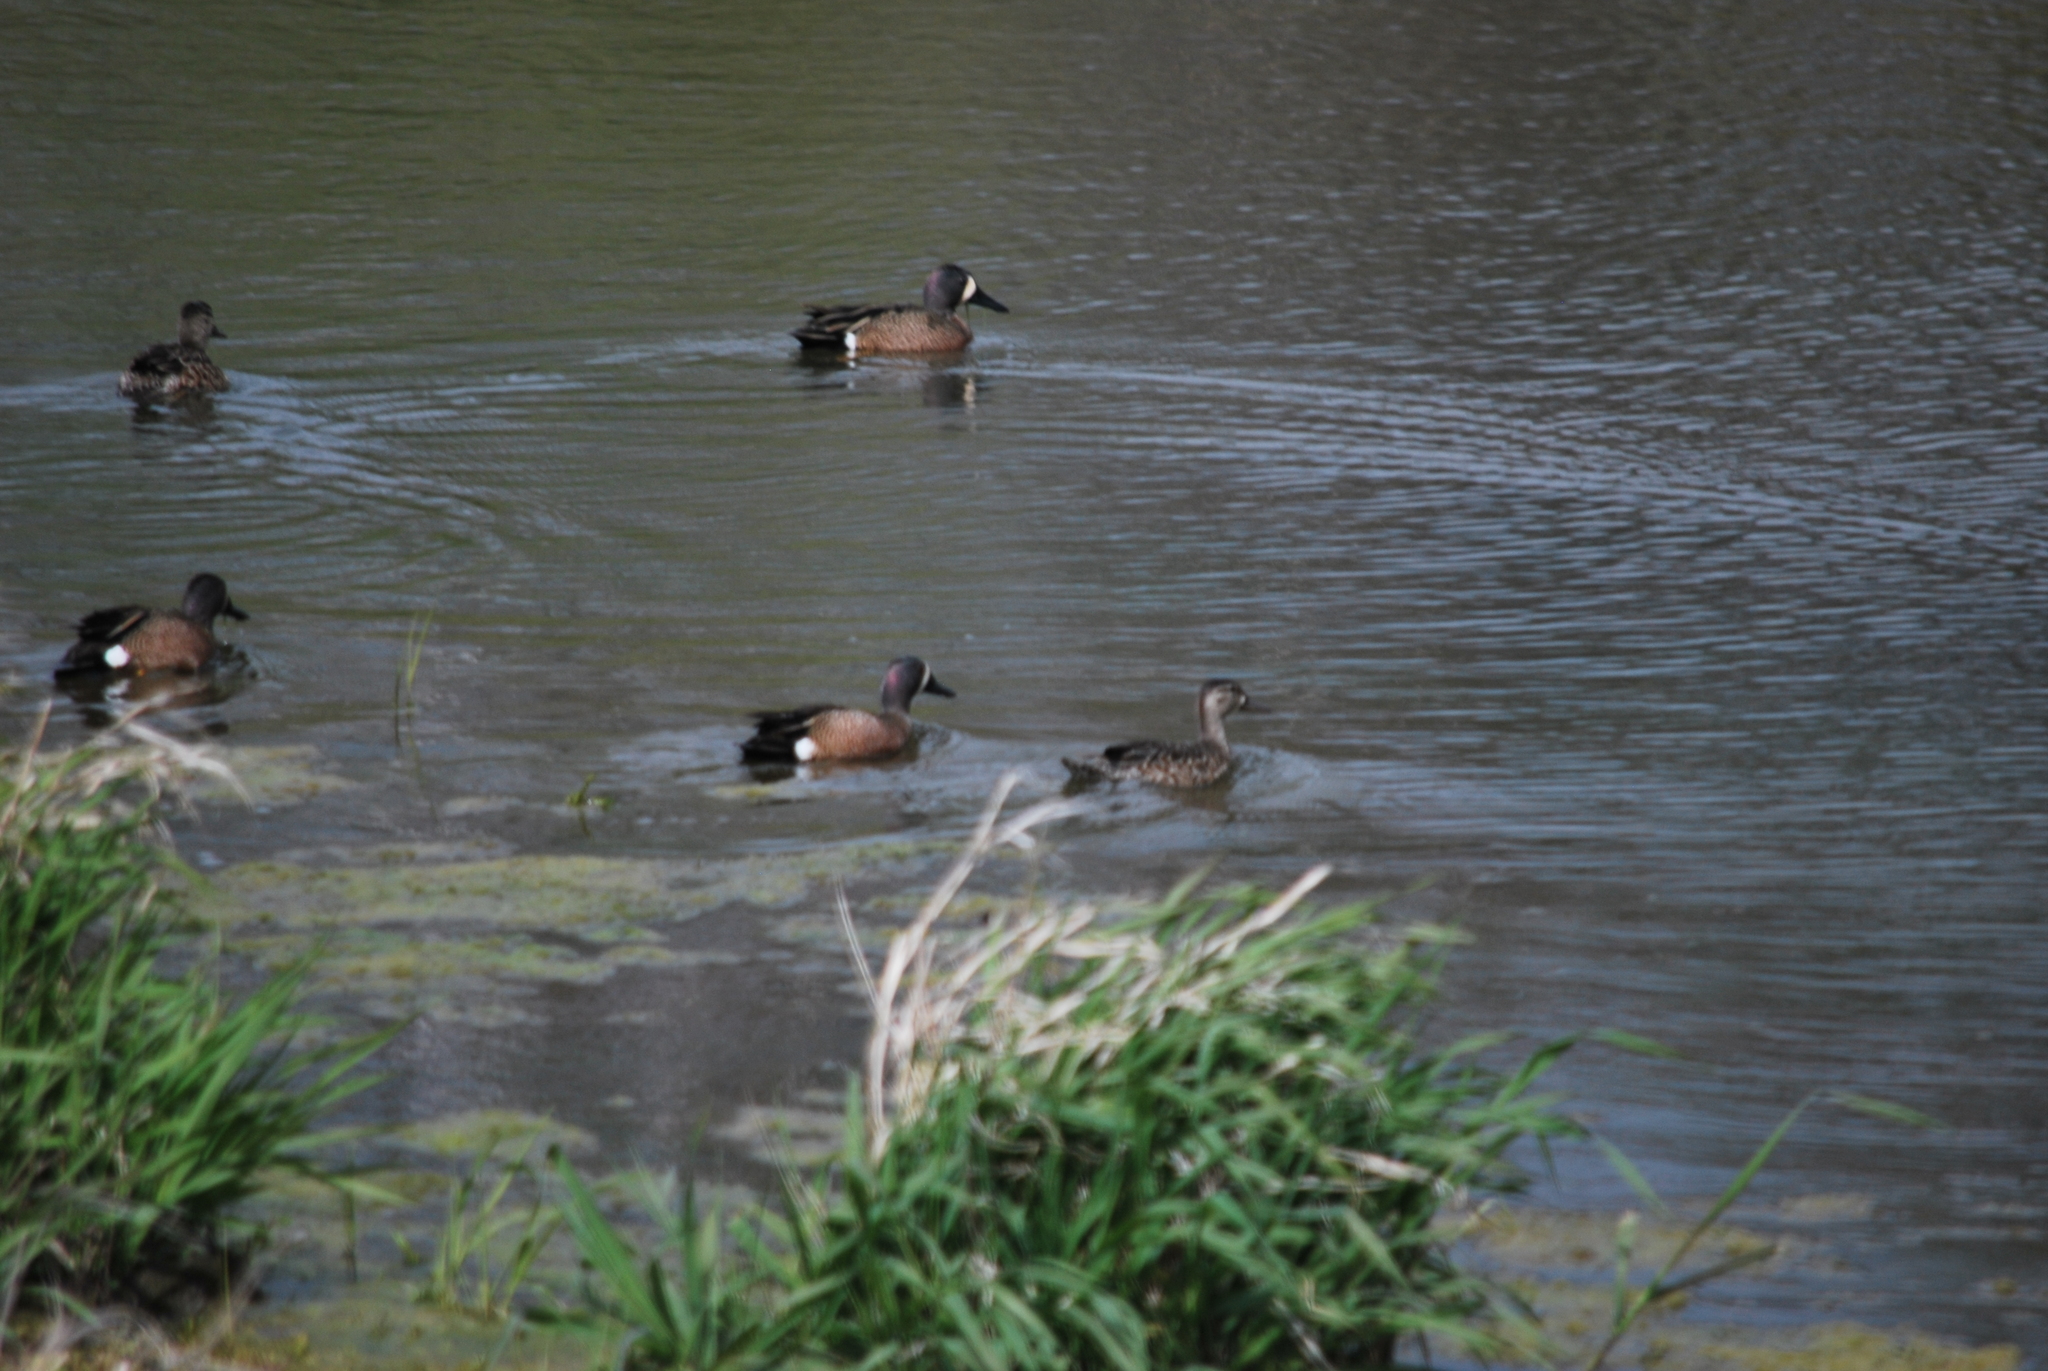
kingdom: Animalia
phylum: Chordata
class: Aves
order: Anseriformes
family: Anatidae
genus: Spatula
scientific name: Spatula discors
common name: Blue-winged teal
